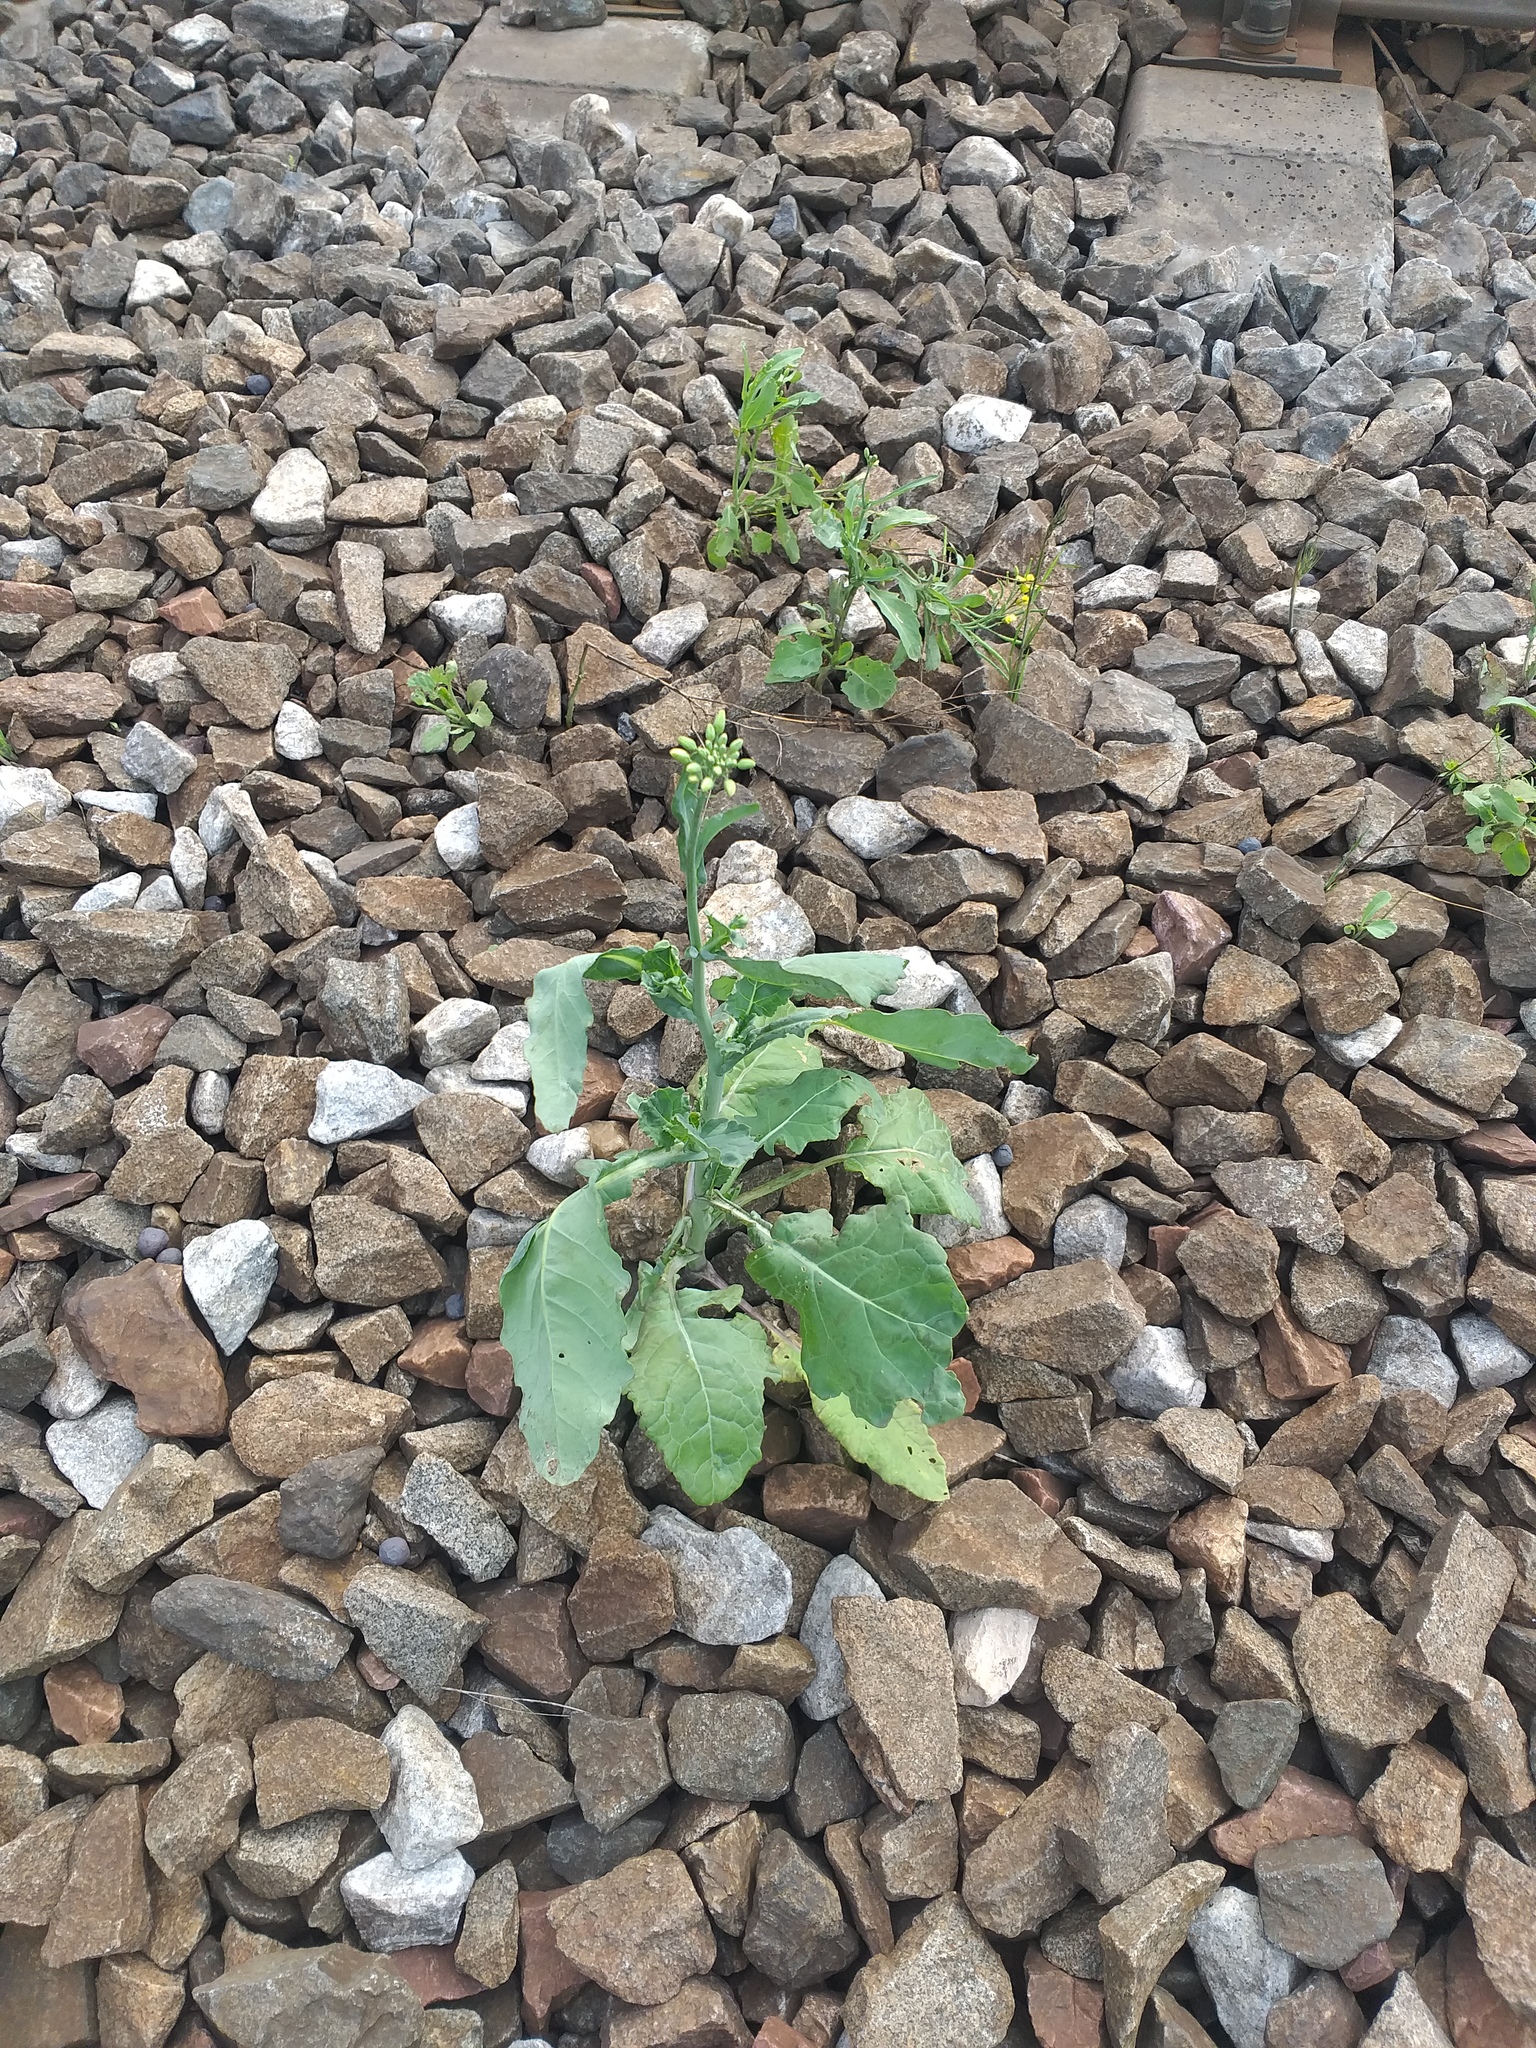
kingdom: Plantae
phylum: Tracheophyta
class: Magnoliopsida
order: Brassicales
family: Brassicaceae
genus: Brassica
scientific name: Brassica napus
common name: Rape
